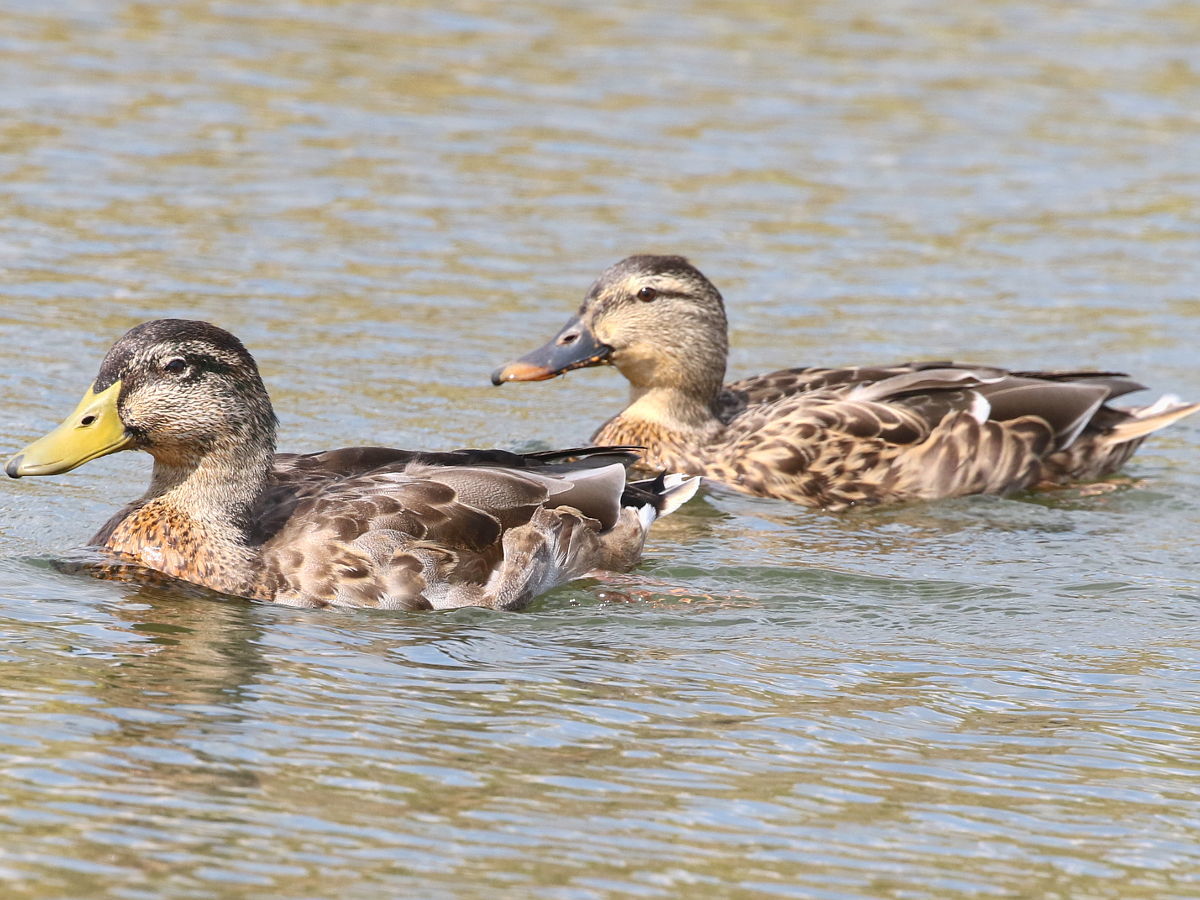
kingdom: Animalia
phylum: Chordata
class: Aves
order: Anseriformes
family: Anatidae
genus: Anas
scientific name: Anas platyrhynchos
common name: Mallard
